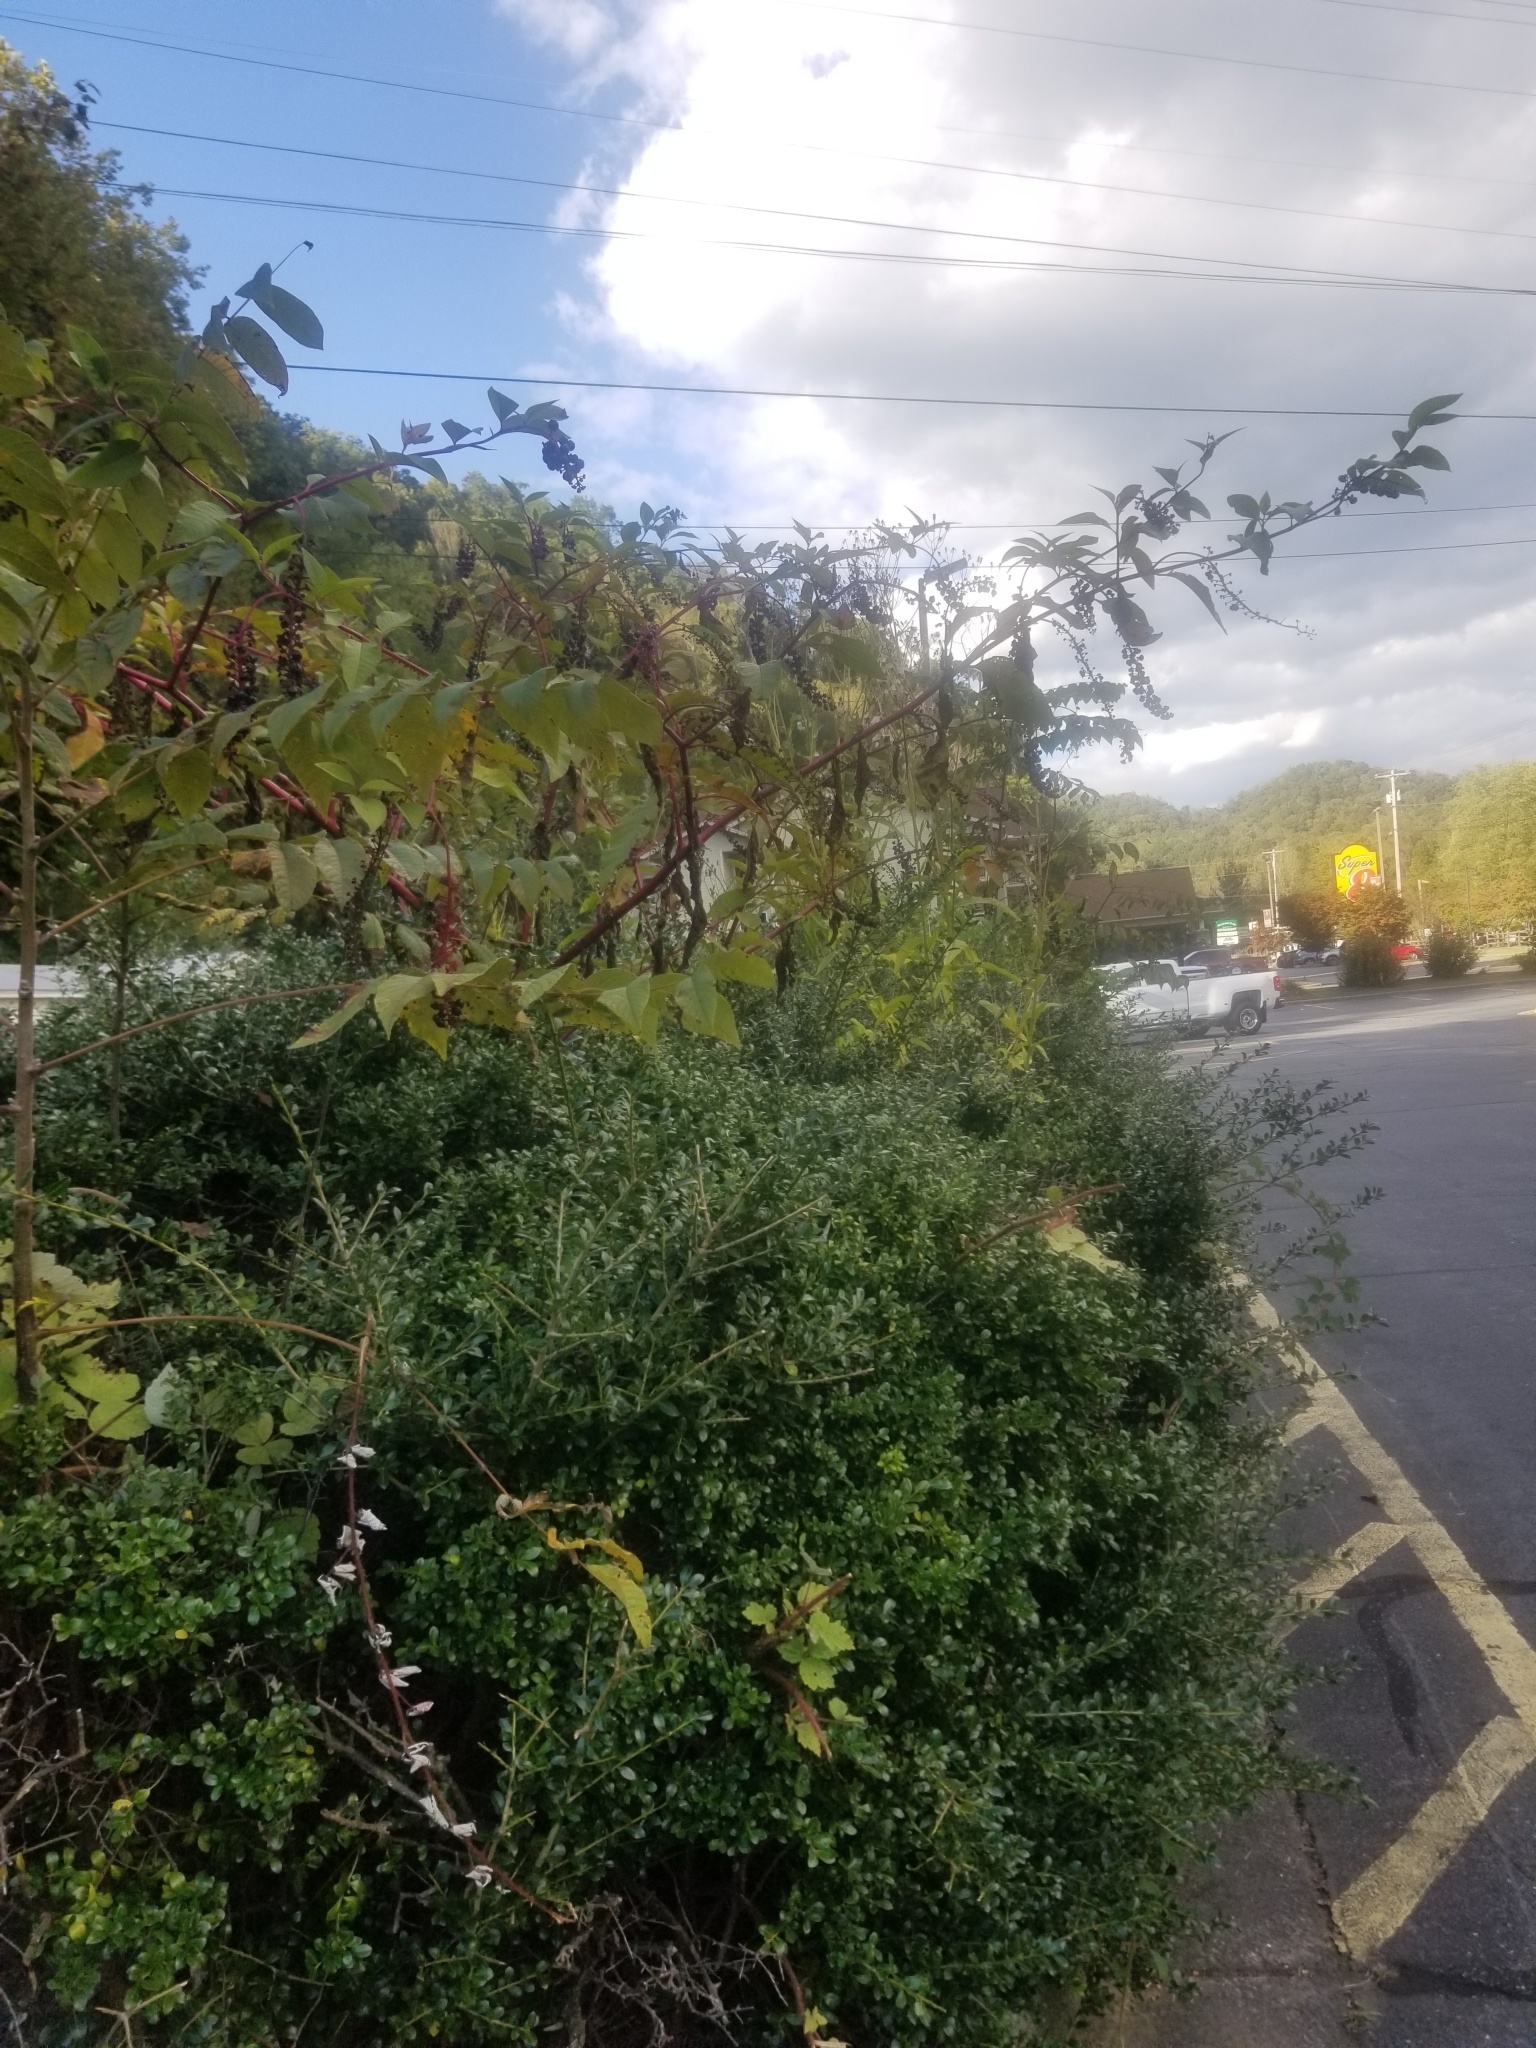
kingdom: Plantae
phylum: Tracheophyta
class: Magnoliopsida
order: Caryophyllales
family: Phytolaccaceae
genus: Phytolacca
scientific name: Phytolacca americana
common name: American pokeweed
